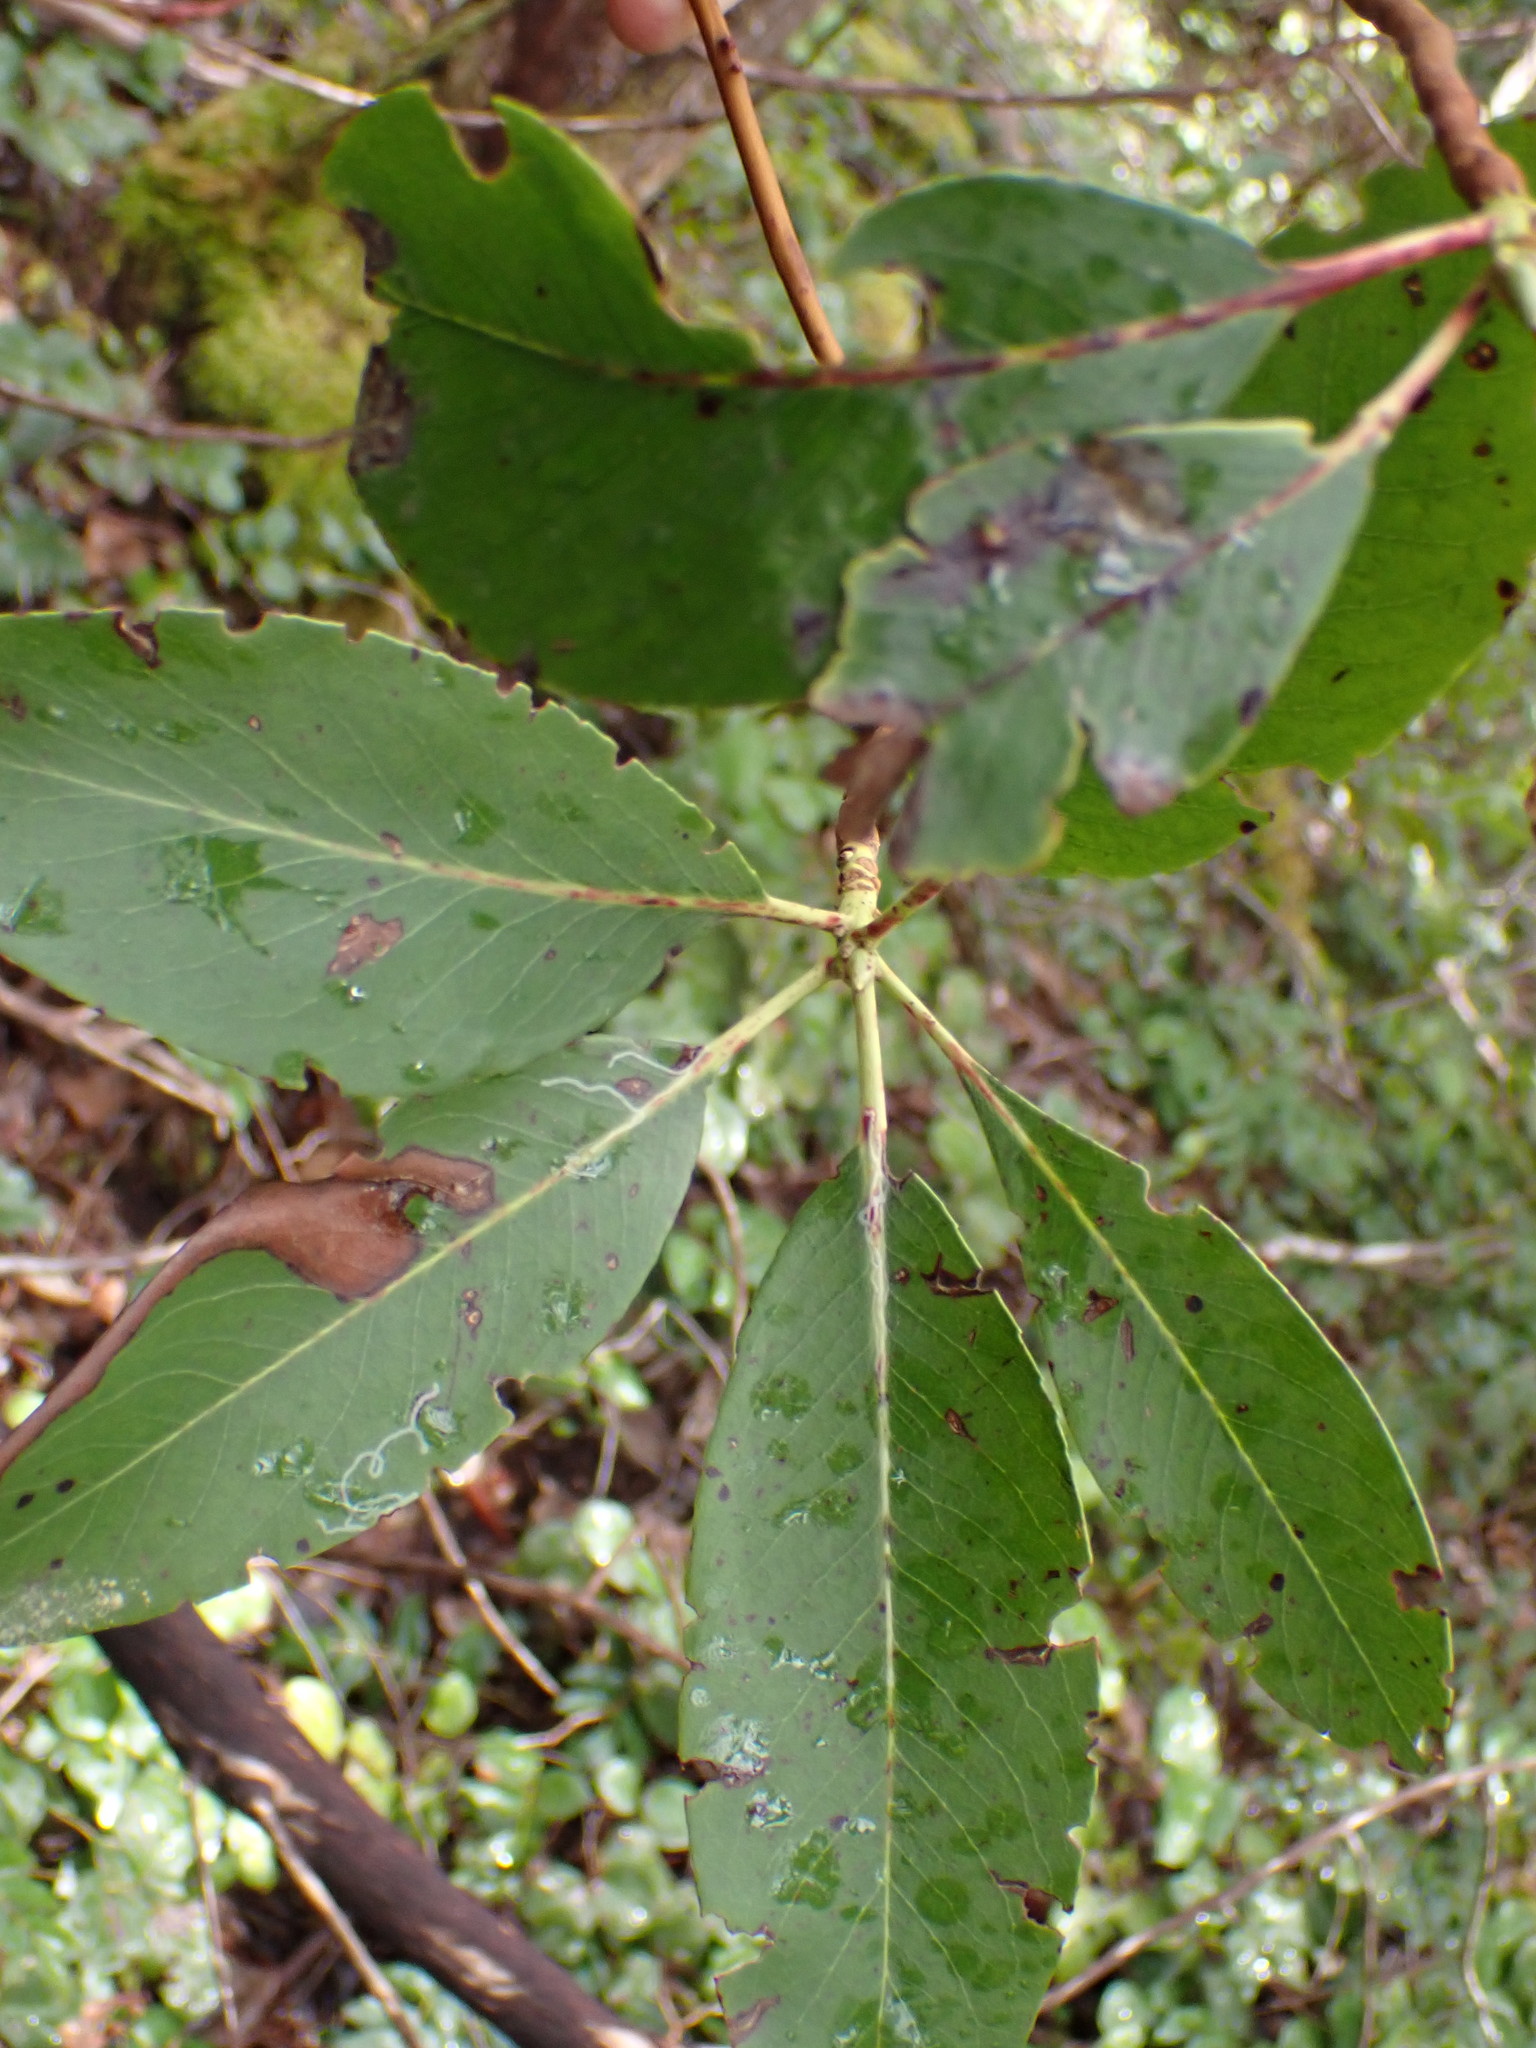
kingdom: Plantae
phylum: Tracheophyta
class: Magnoliopsida
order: Ericales
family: Ericaceae
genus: Arbutus
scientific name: Arbutus menziesii
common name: Pacific madrone
